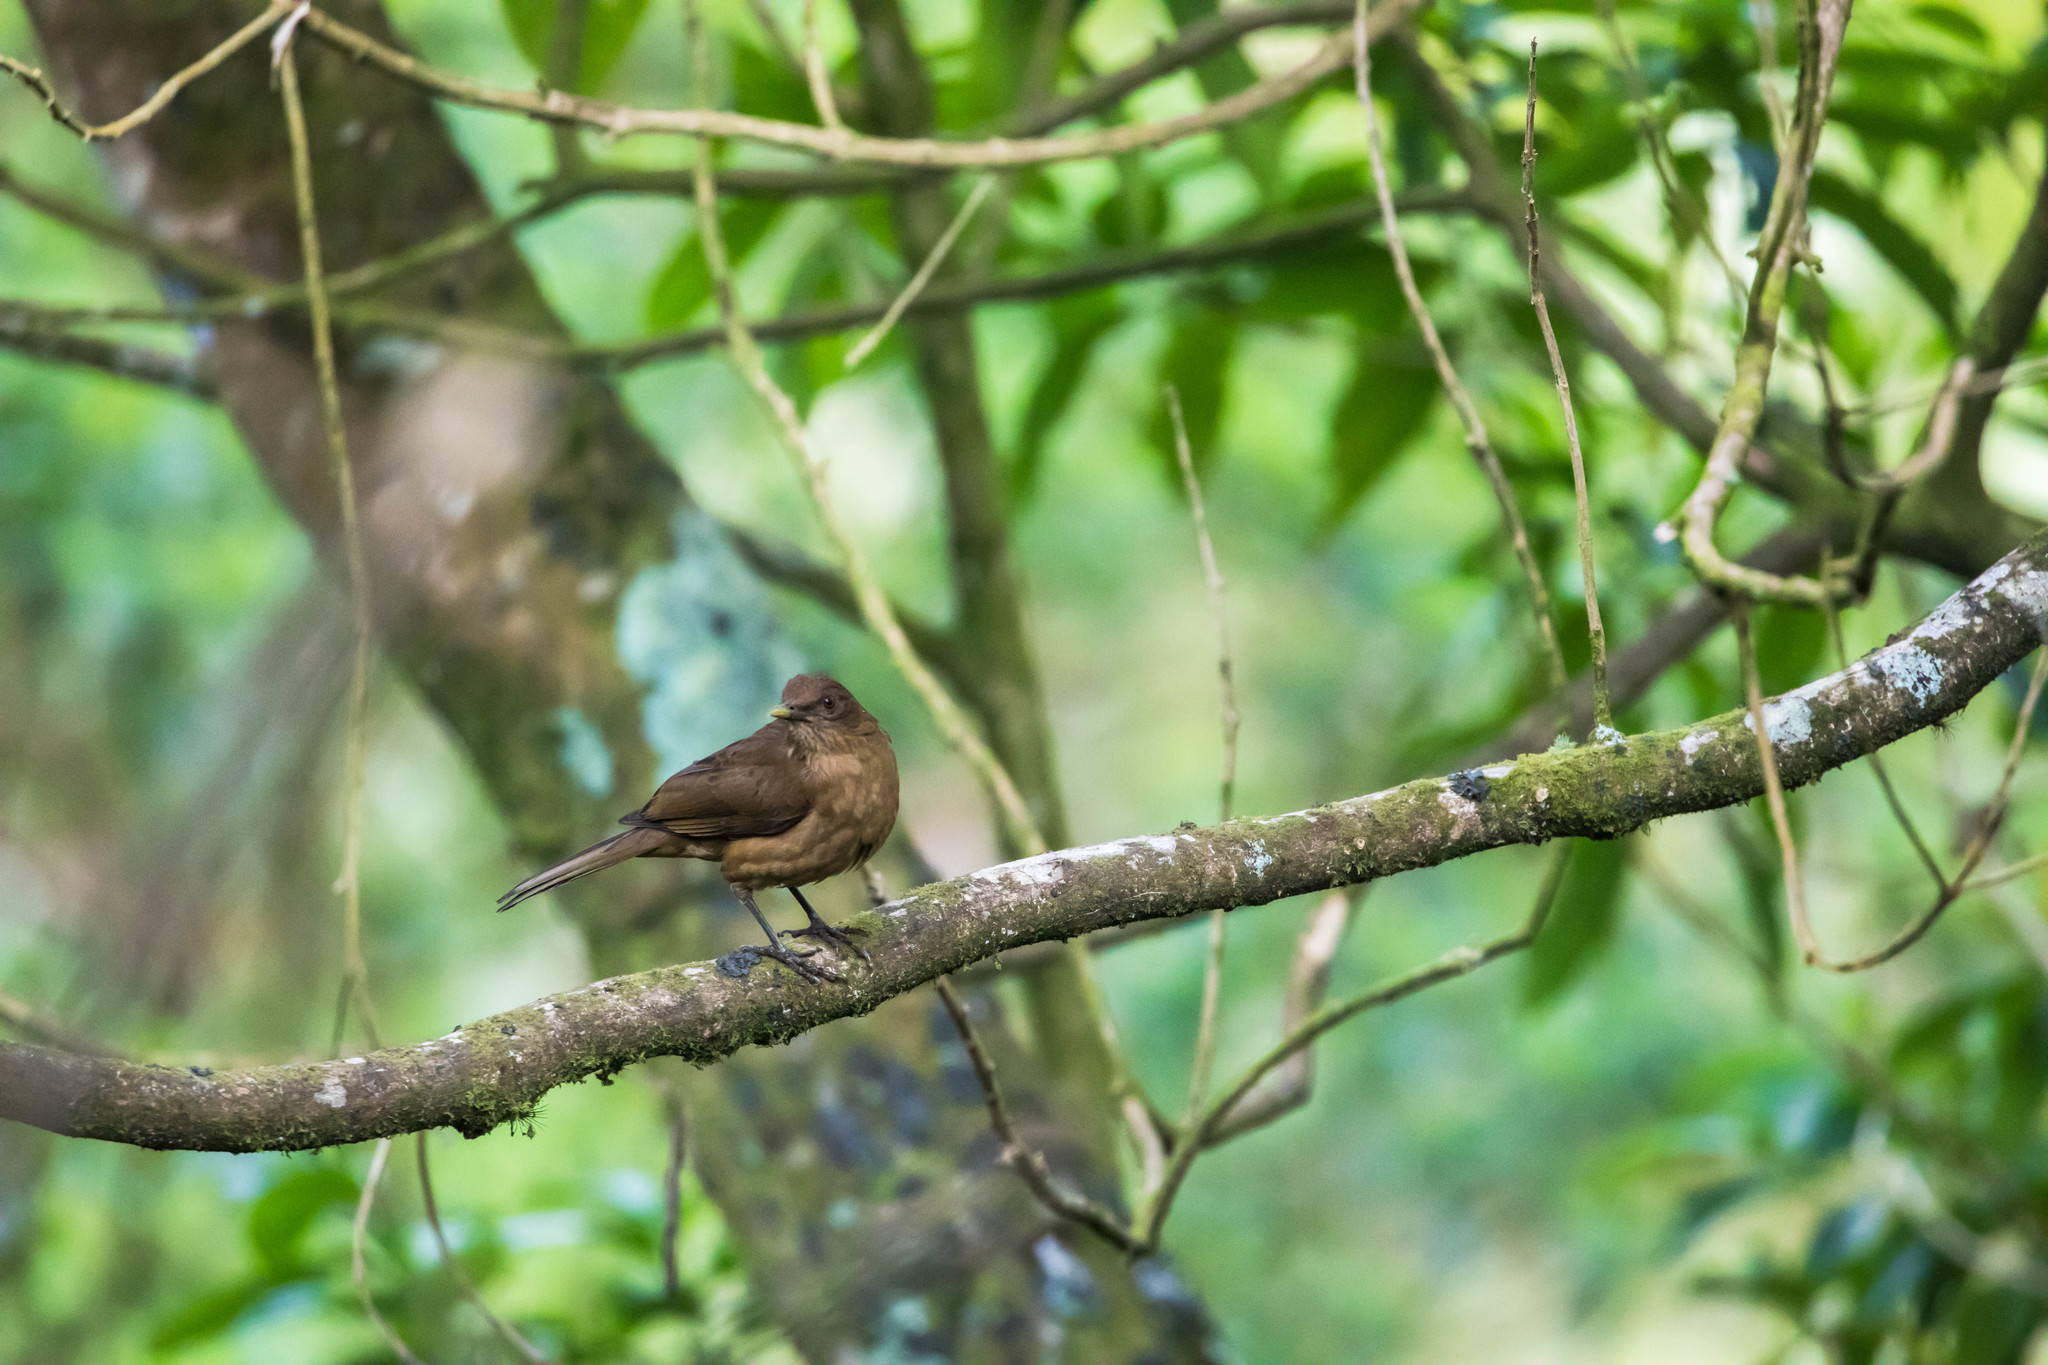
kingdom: Animalia
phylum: Chordata
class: Aves
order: Passeriformes
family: Turdidae
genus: Turdus
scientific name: Turdus grayi
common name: Clay-colored thrush
